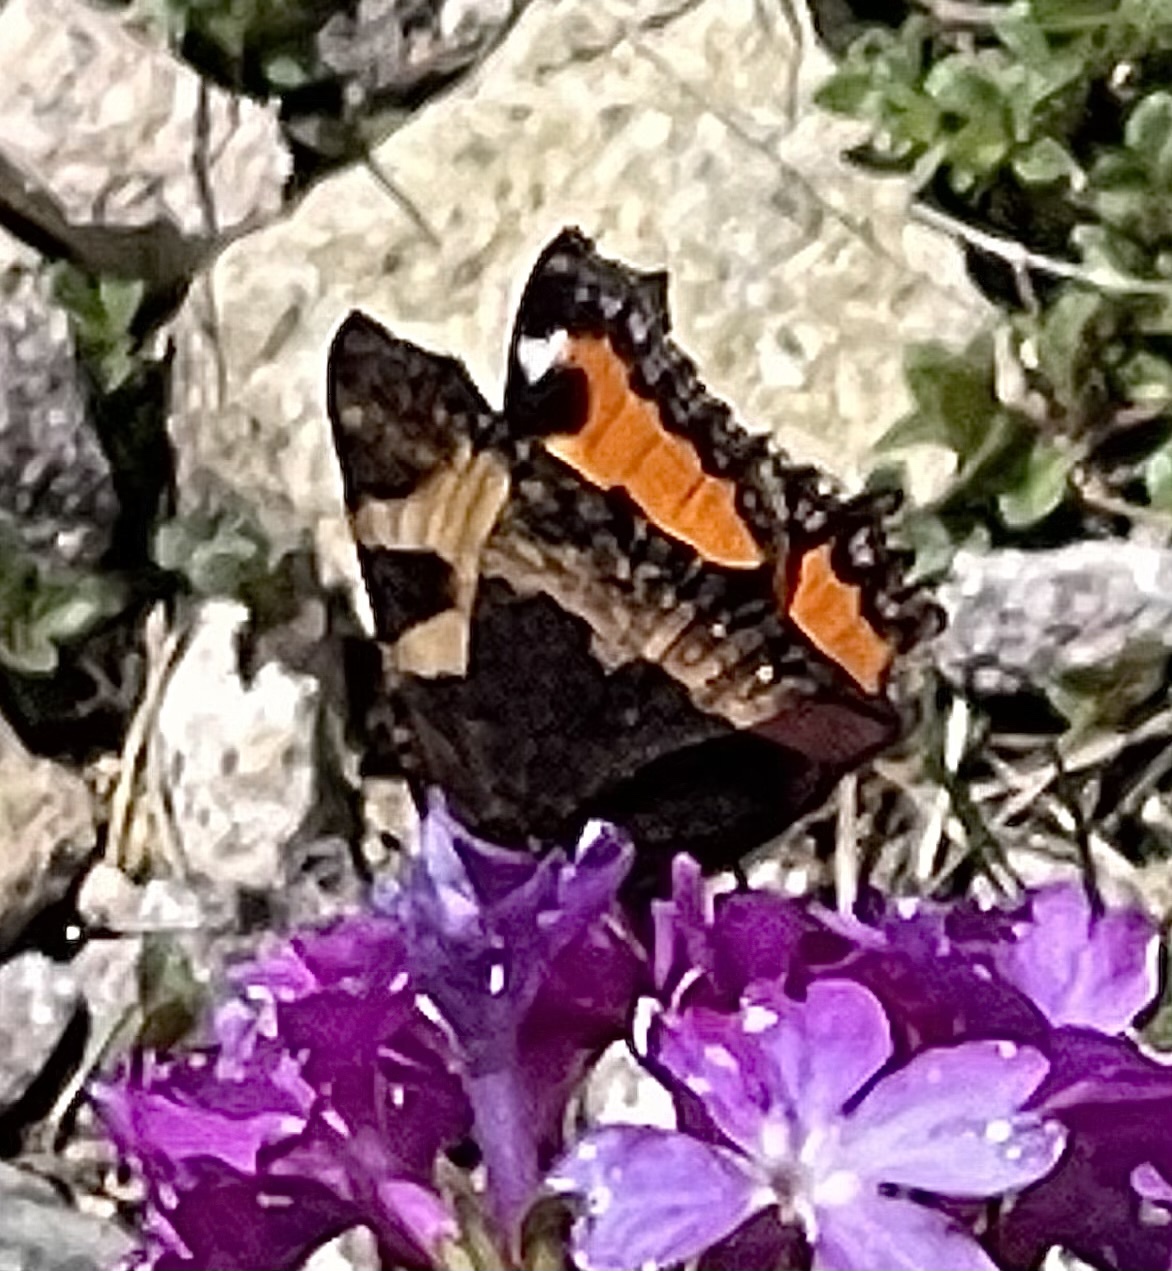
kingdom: Animalia
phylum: Arthropoda
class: Insecta
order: Lepidoptera
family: Nymphalidae
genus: Aglais
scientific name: Aglais urticae
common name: Small tortoiseshell
